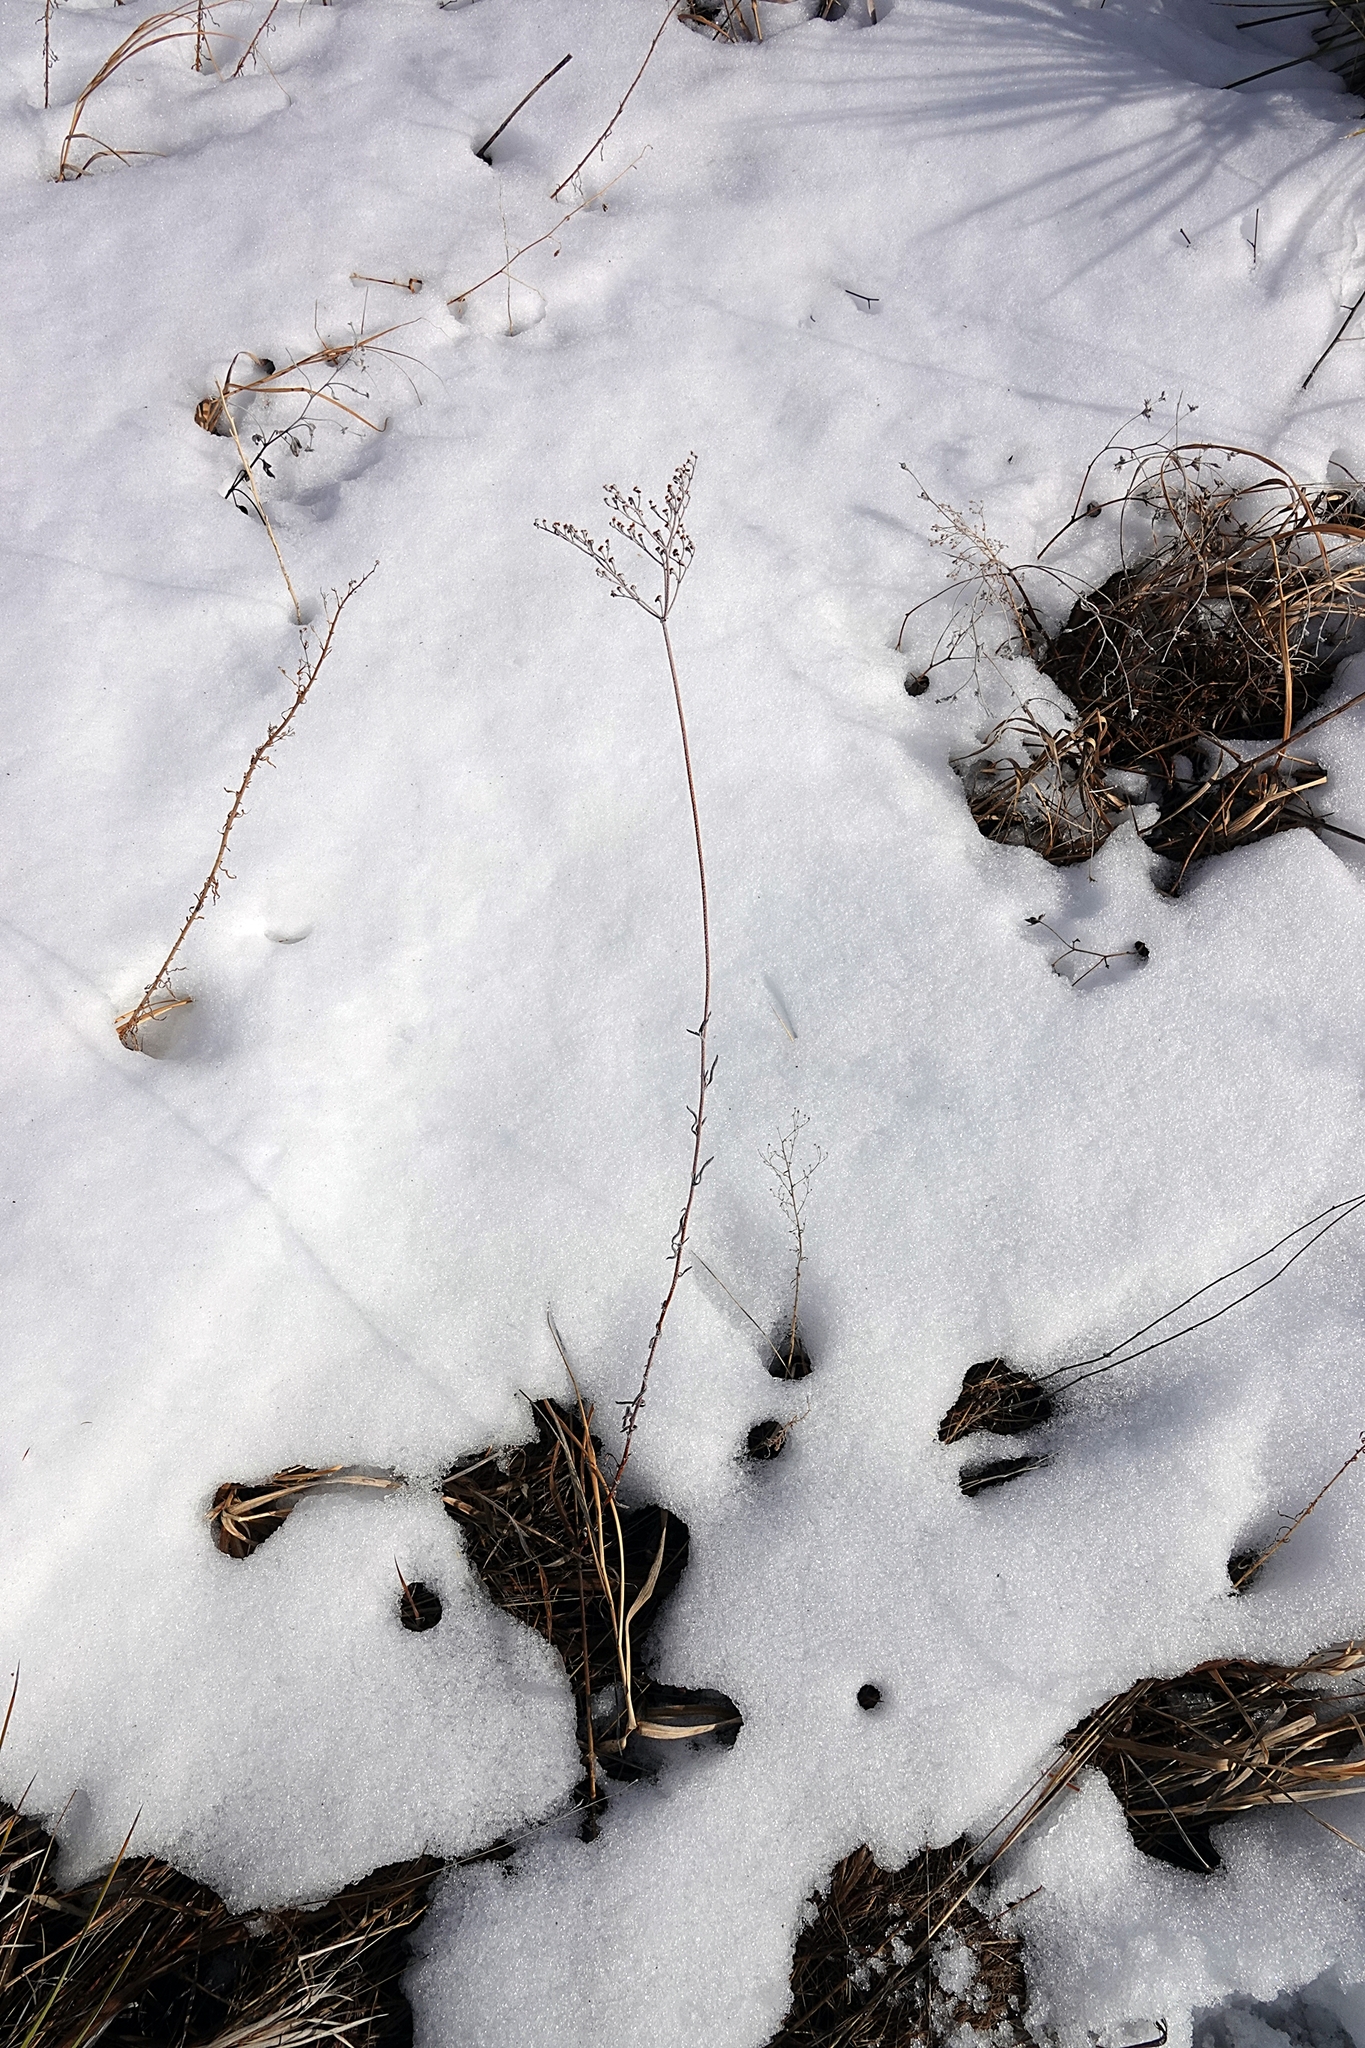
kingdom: Plantae
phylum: Tracheophyta
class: Magnoliopsida
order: Caryophyllales
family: Polygonaceae
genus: Eriogonum
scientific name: Eriogonum annuum
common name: Annual wild buckwheat
